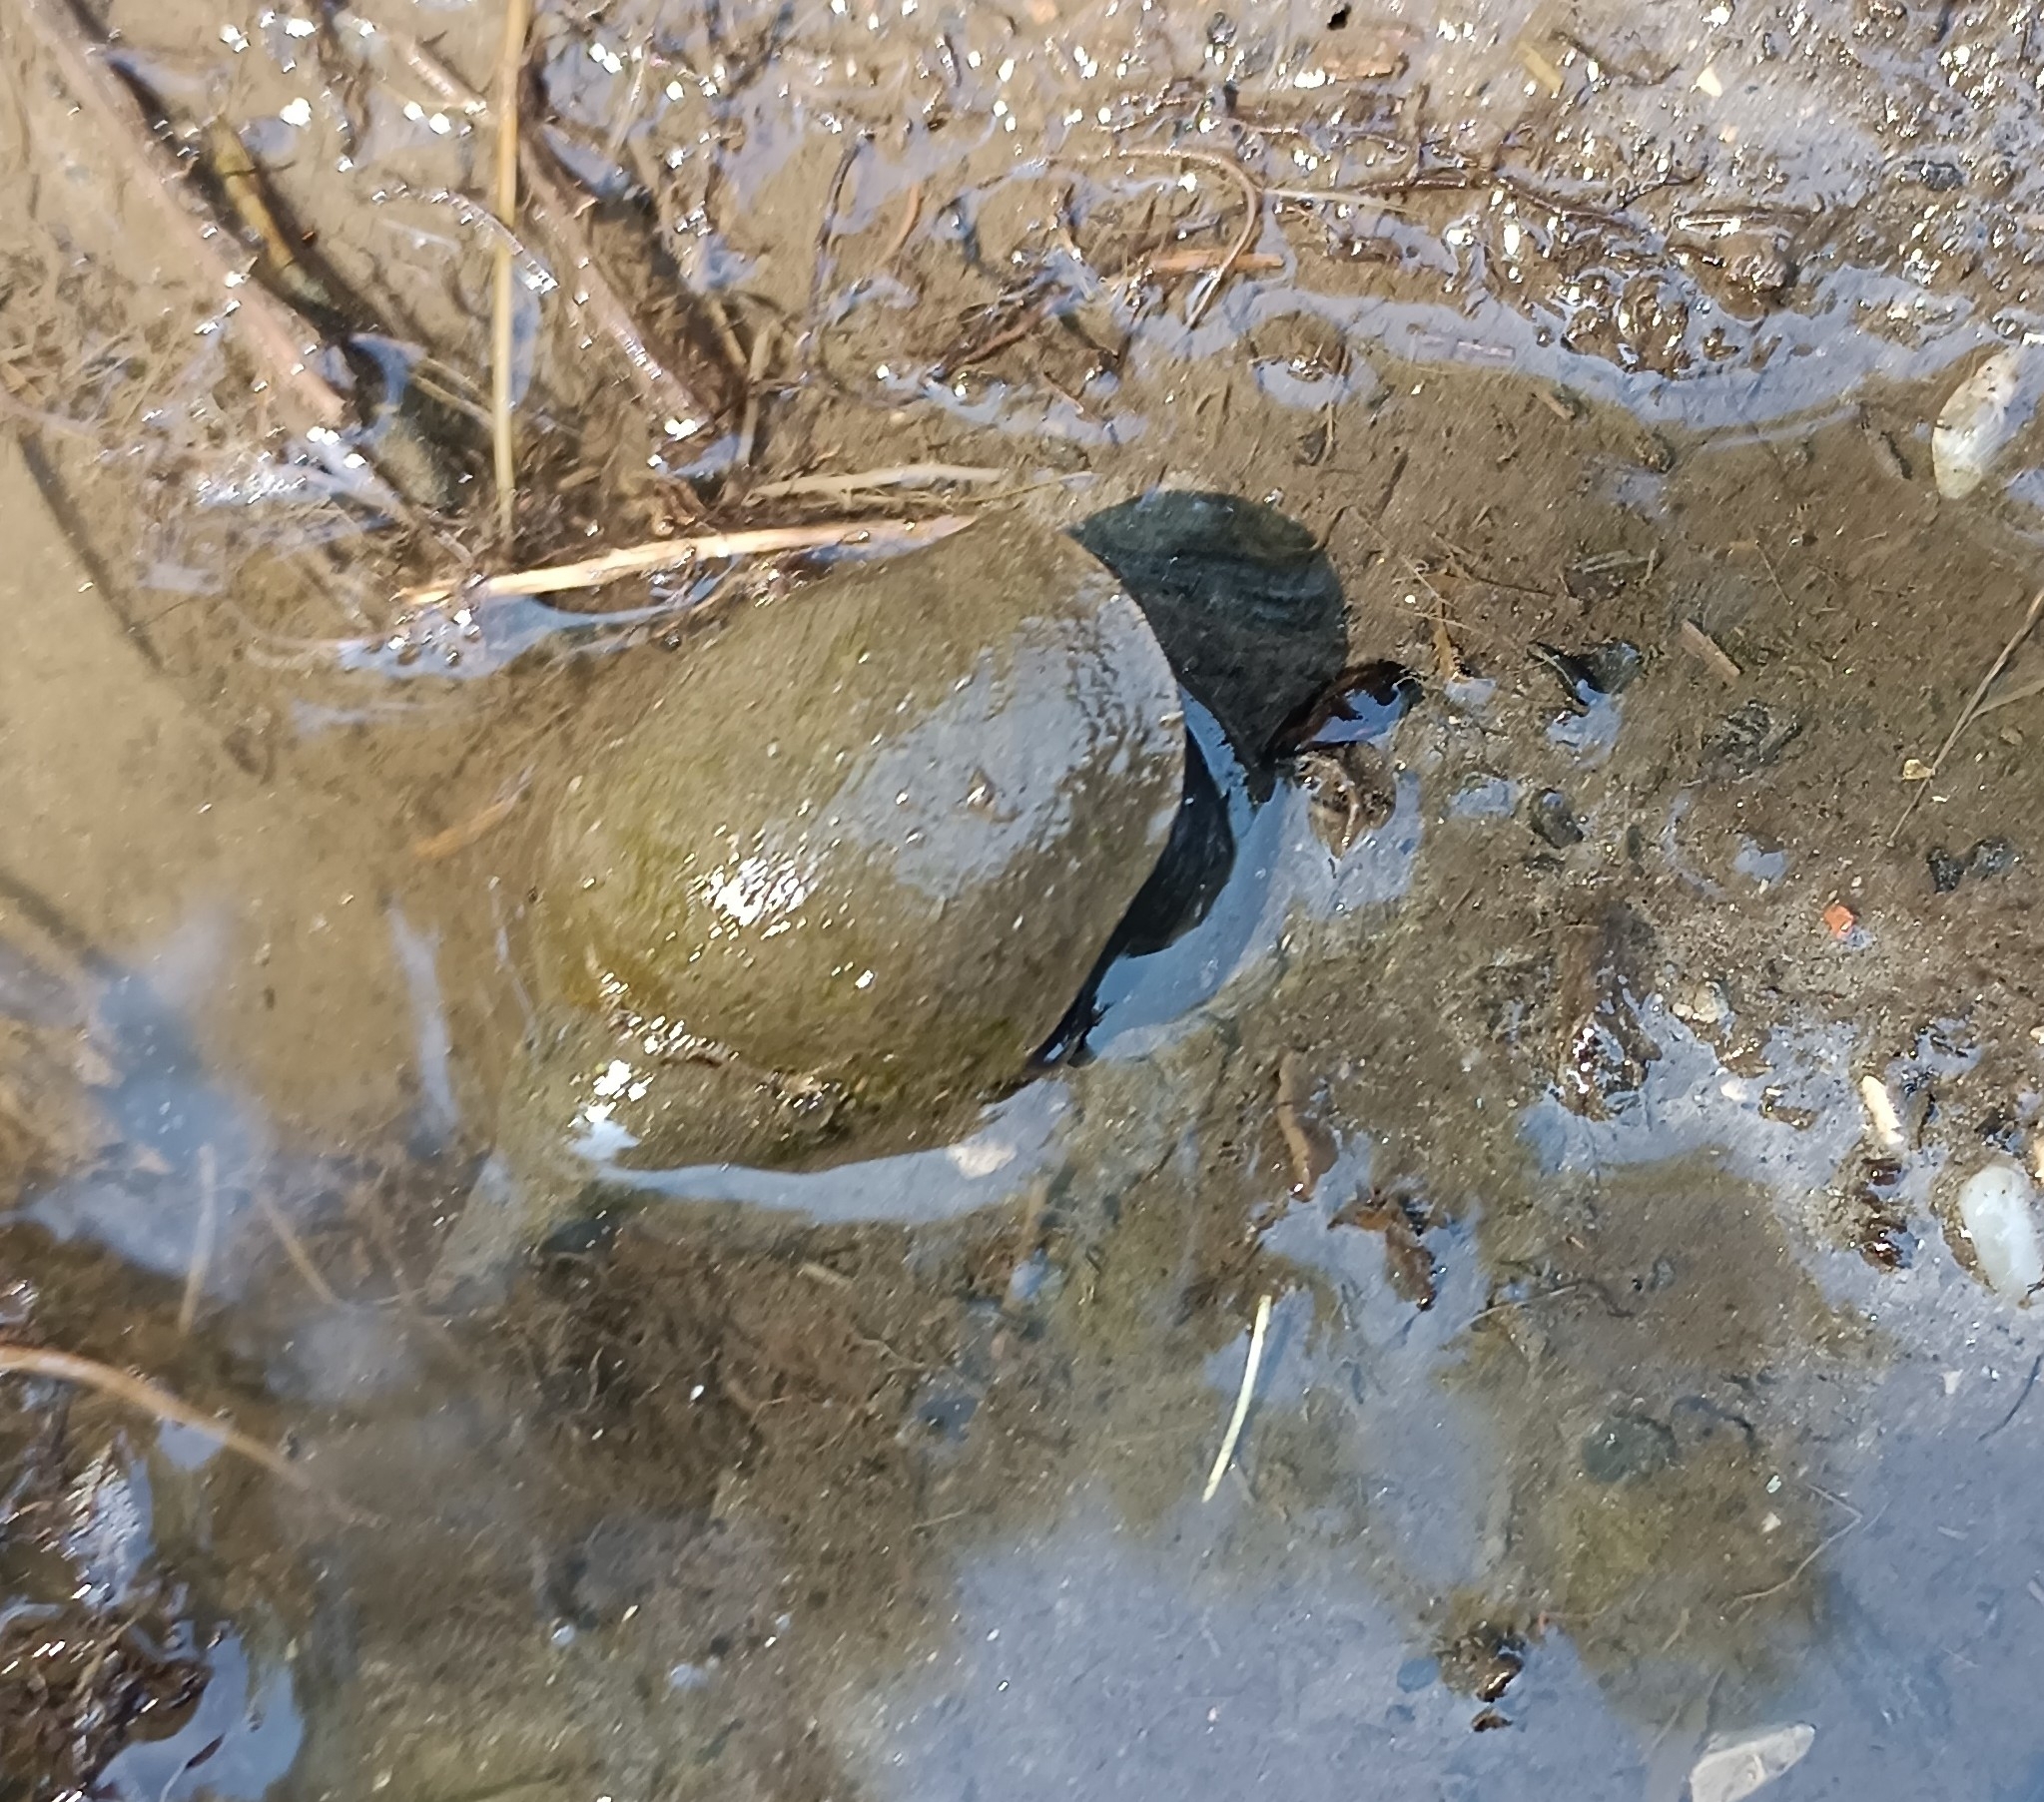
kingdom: Animalia
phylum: Mollusca
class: Gastropoda
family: Lymnaeidae
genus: Lymnaea
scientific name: Lymnaea stagnalis
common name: Great pond snail
